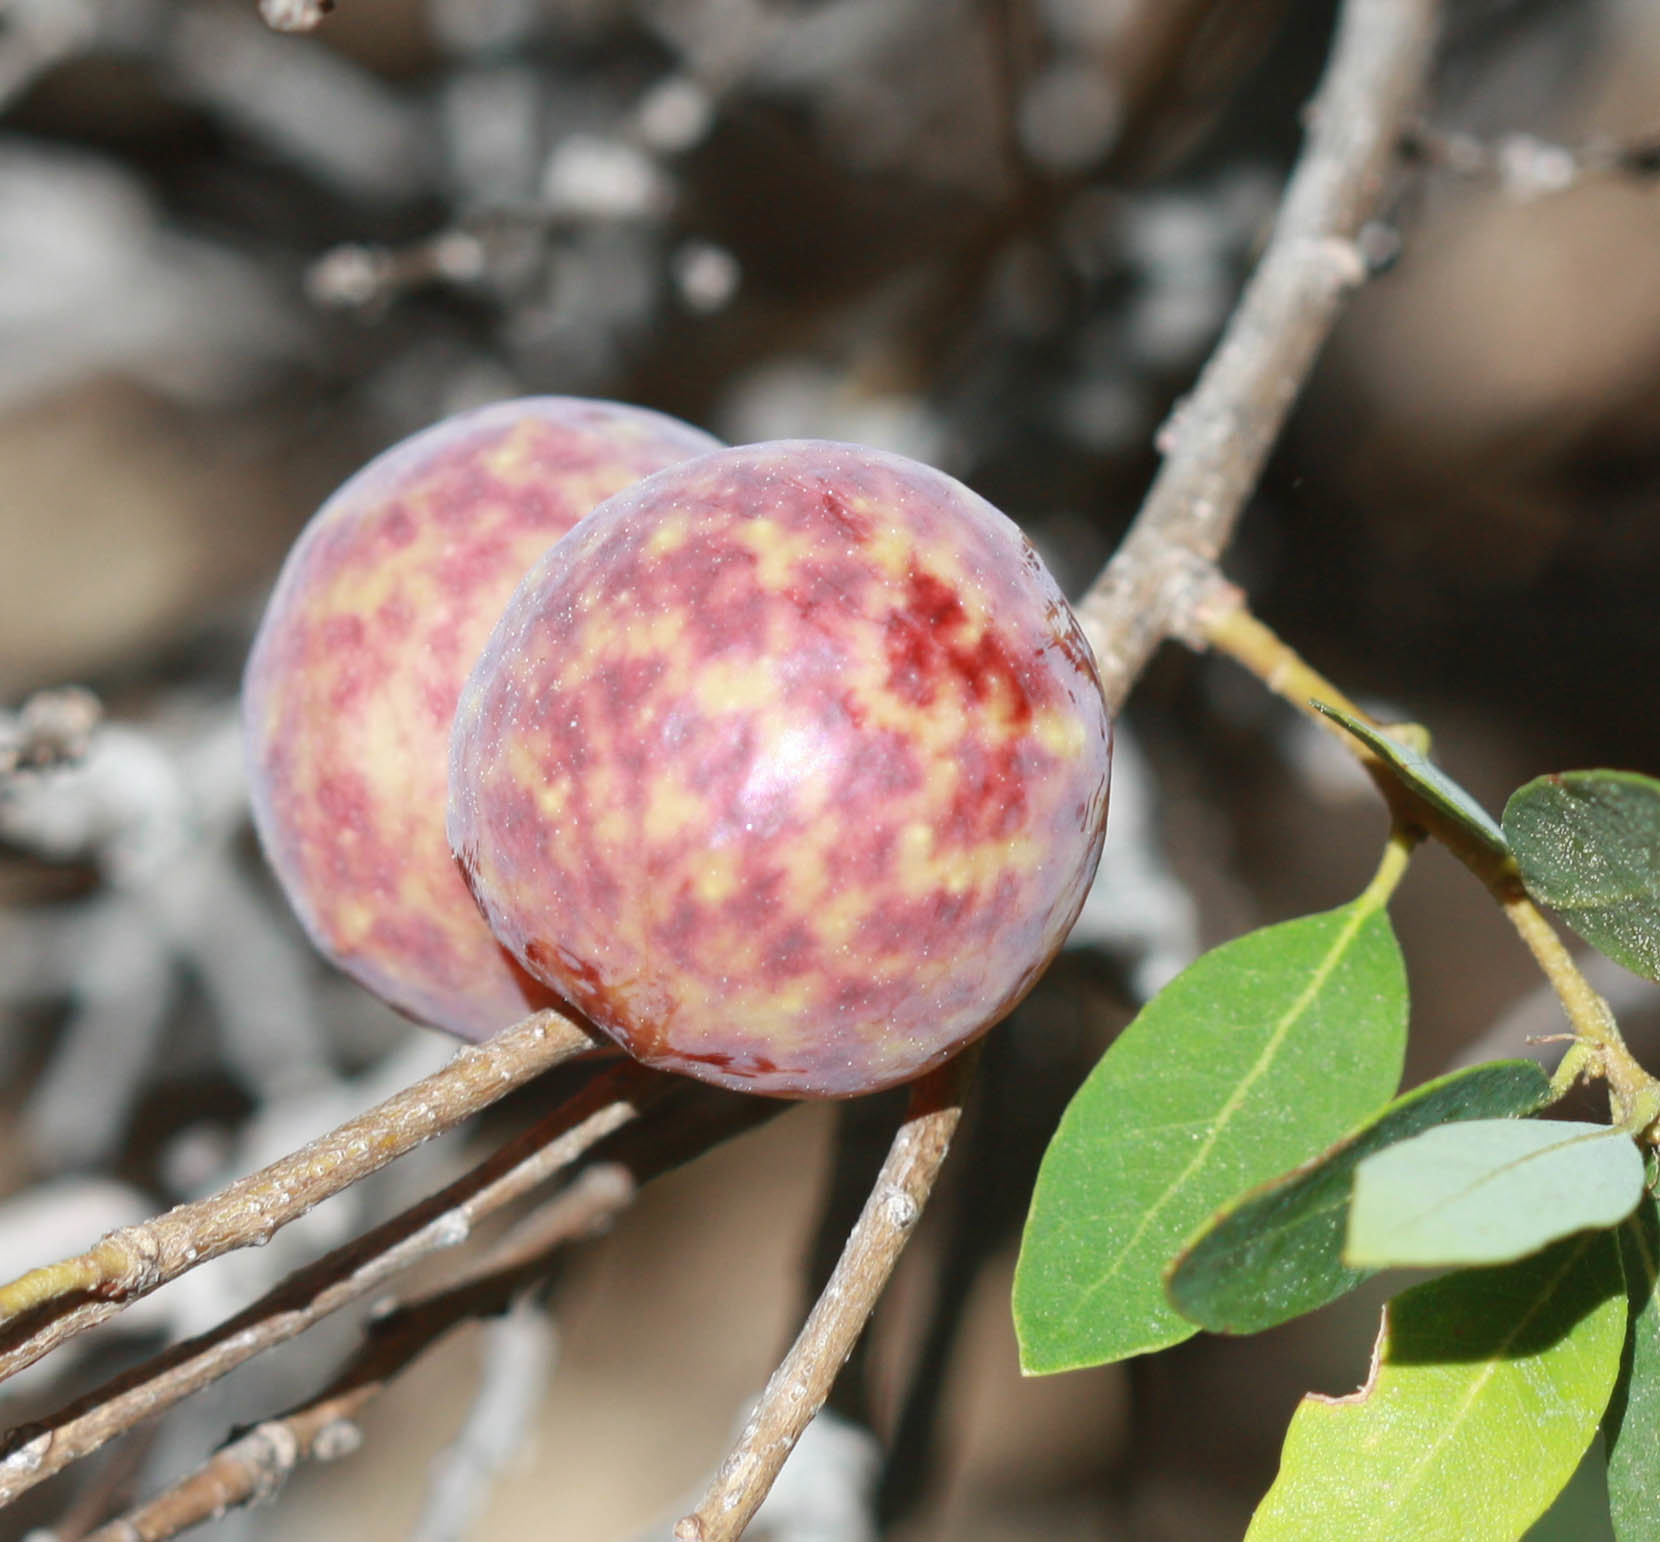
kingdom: Animalia
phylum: Arthropoda
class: Insecta
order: Hymenoptera
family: Cynipidae
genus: Andricus
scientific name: Andricus
